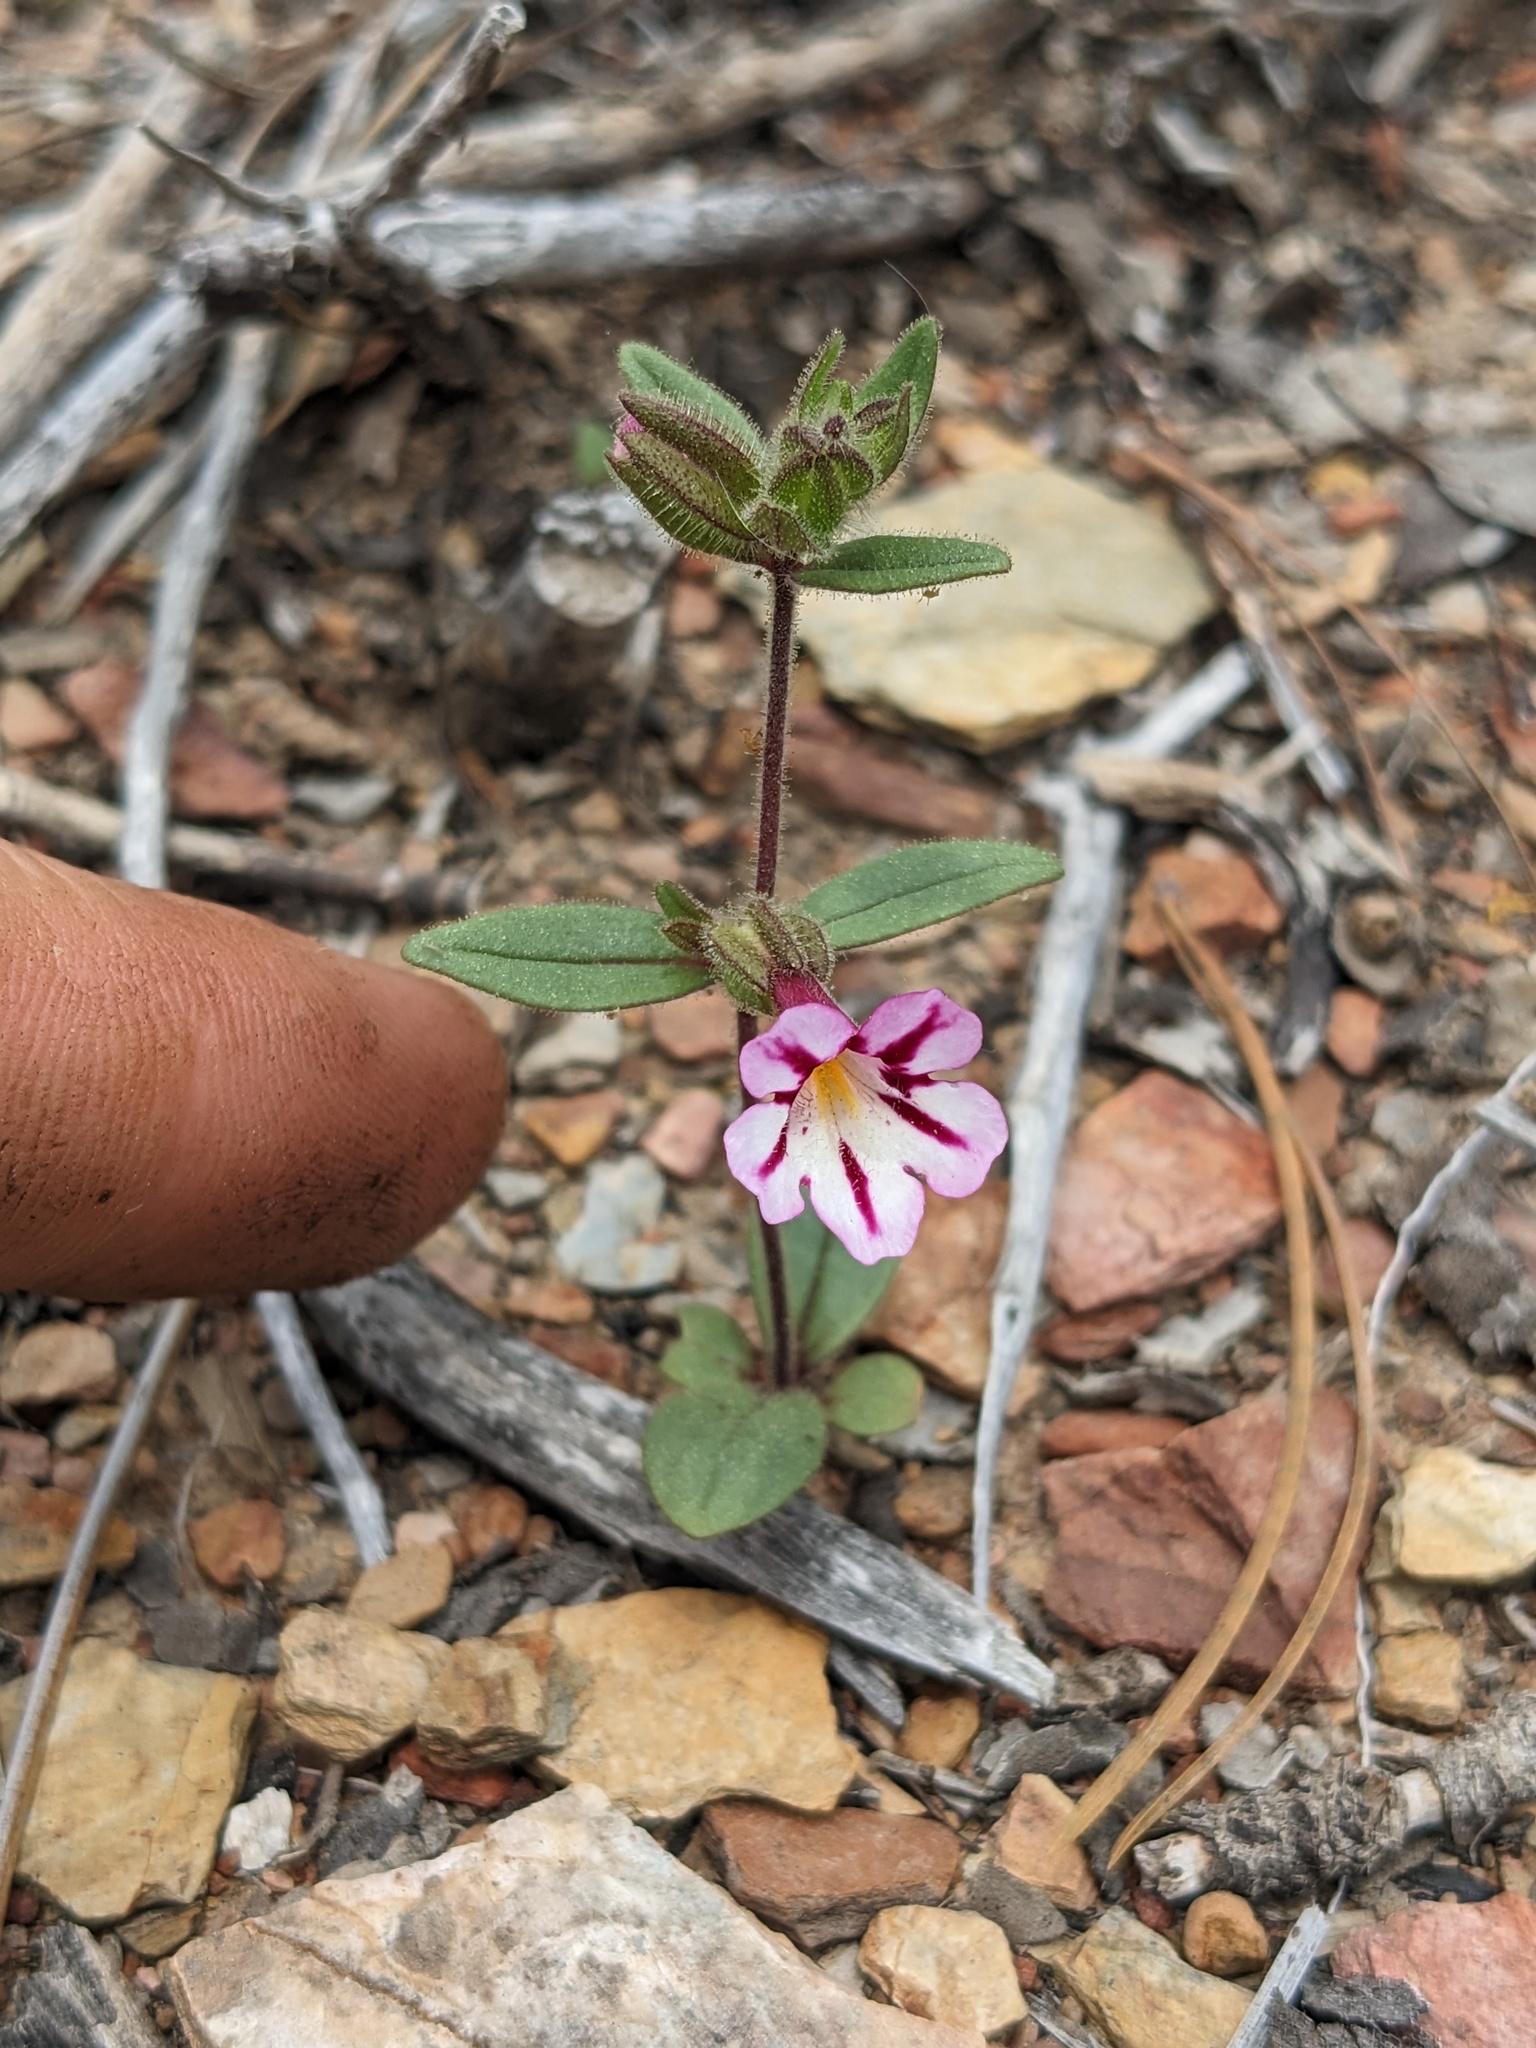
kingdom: Plantae
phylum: Tracheophyta
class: Magnoliopsida
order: Lamiales
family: Phrymaceae
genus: Diplacus
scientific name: Diplacus viscidus
